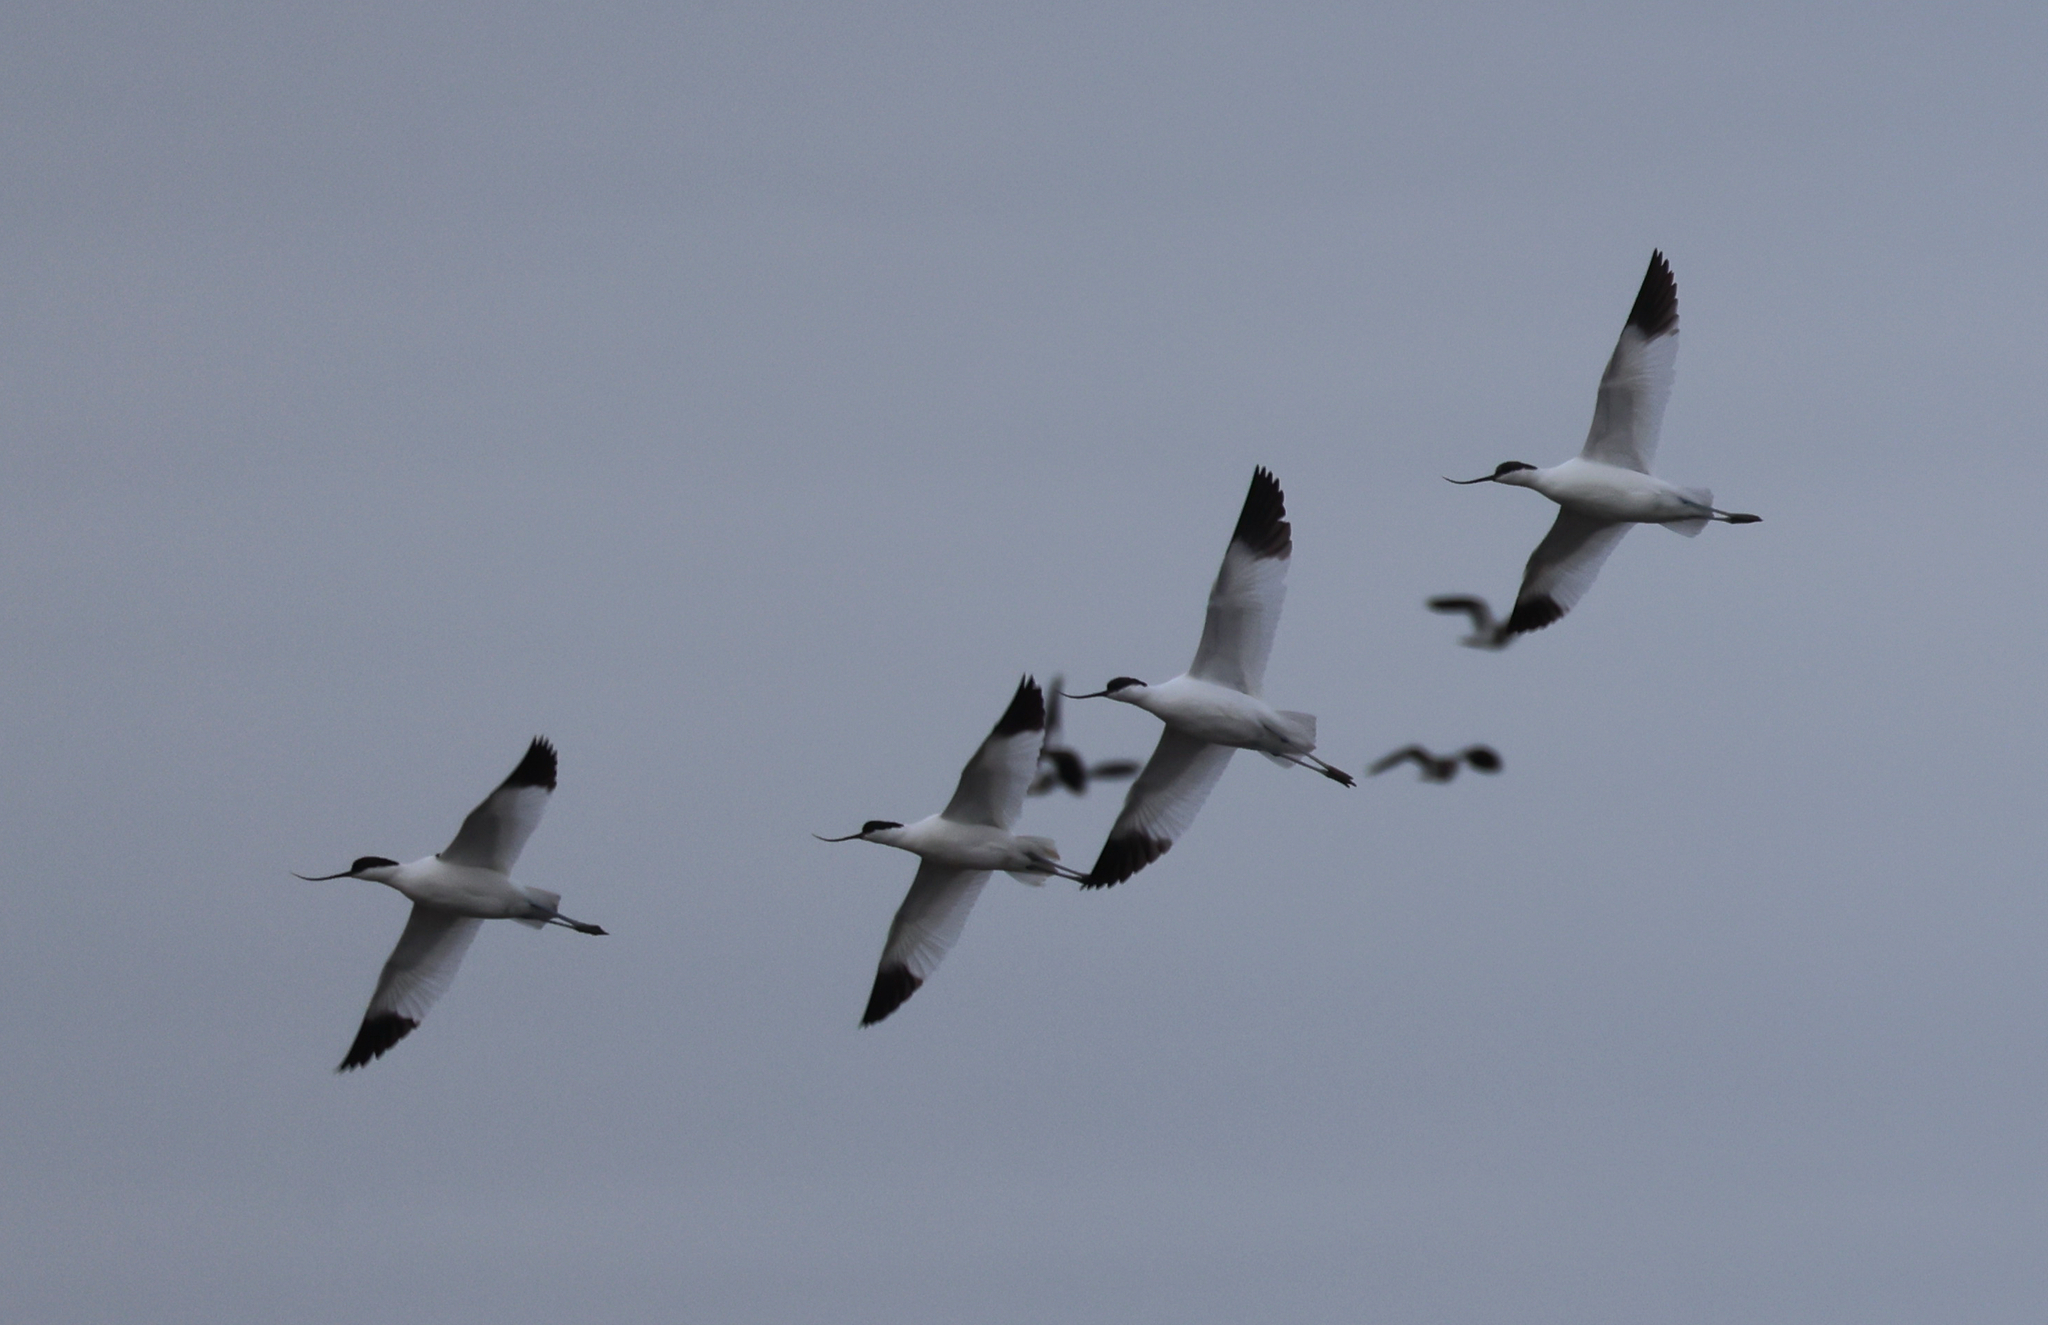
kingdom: Animalia
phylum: Chordata
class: Aves
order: Charadriiformes
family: Recurvirostridae
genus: Recurvirostra
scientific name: Recurvirostra avosetta
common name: Pied avocet
